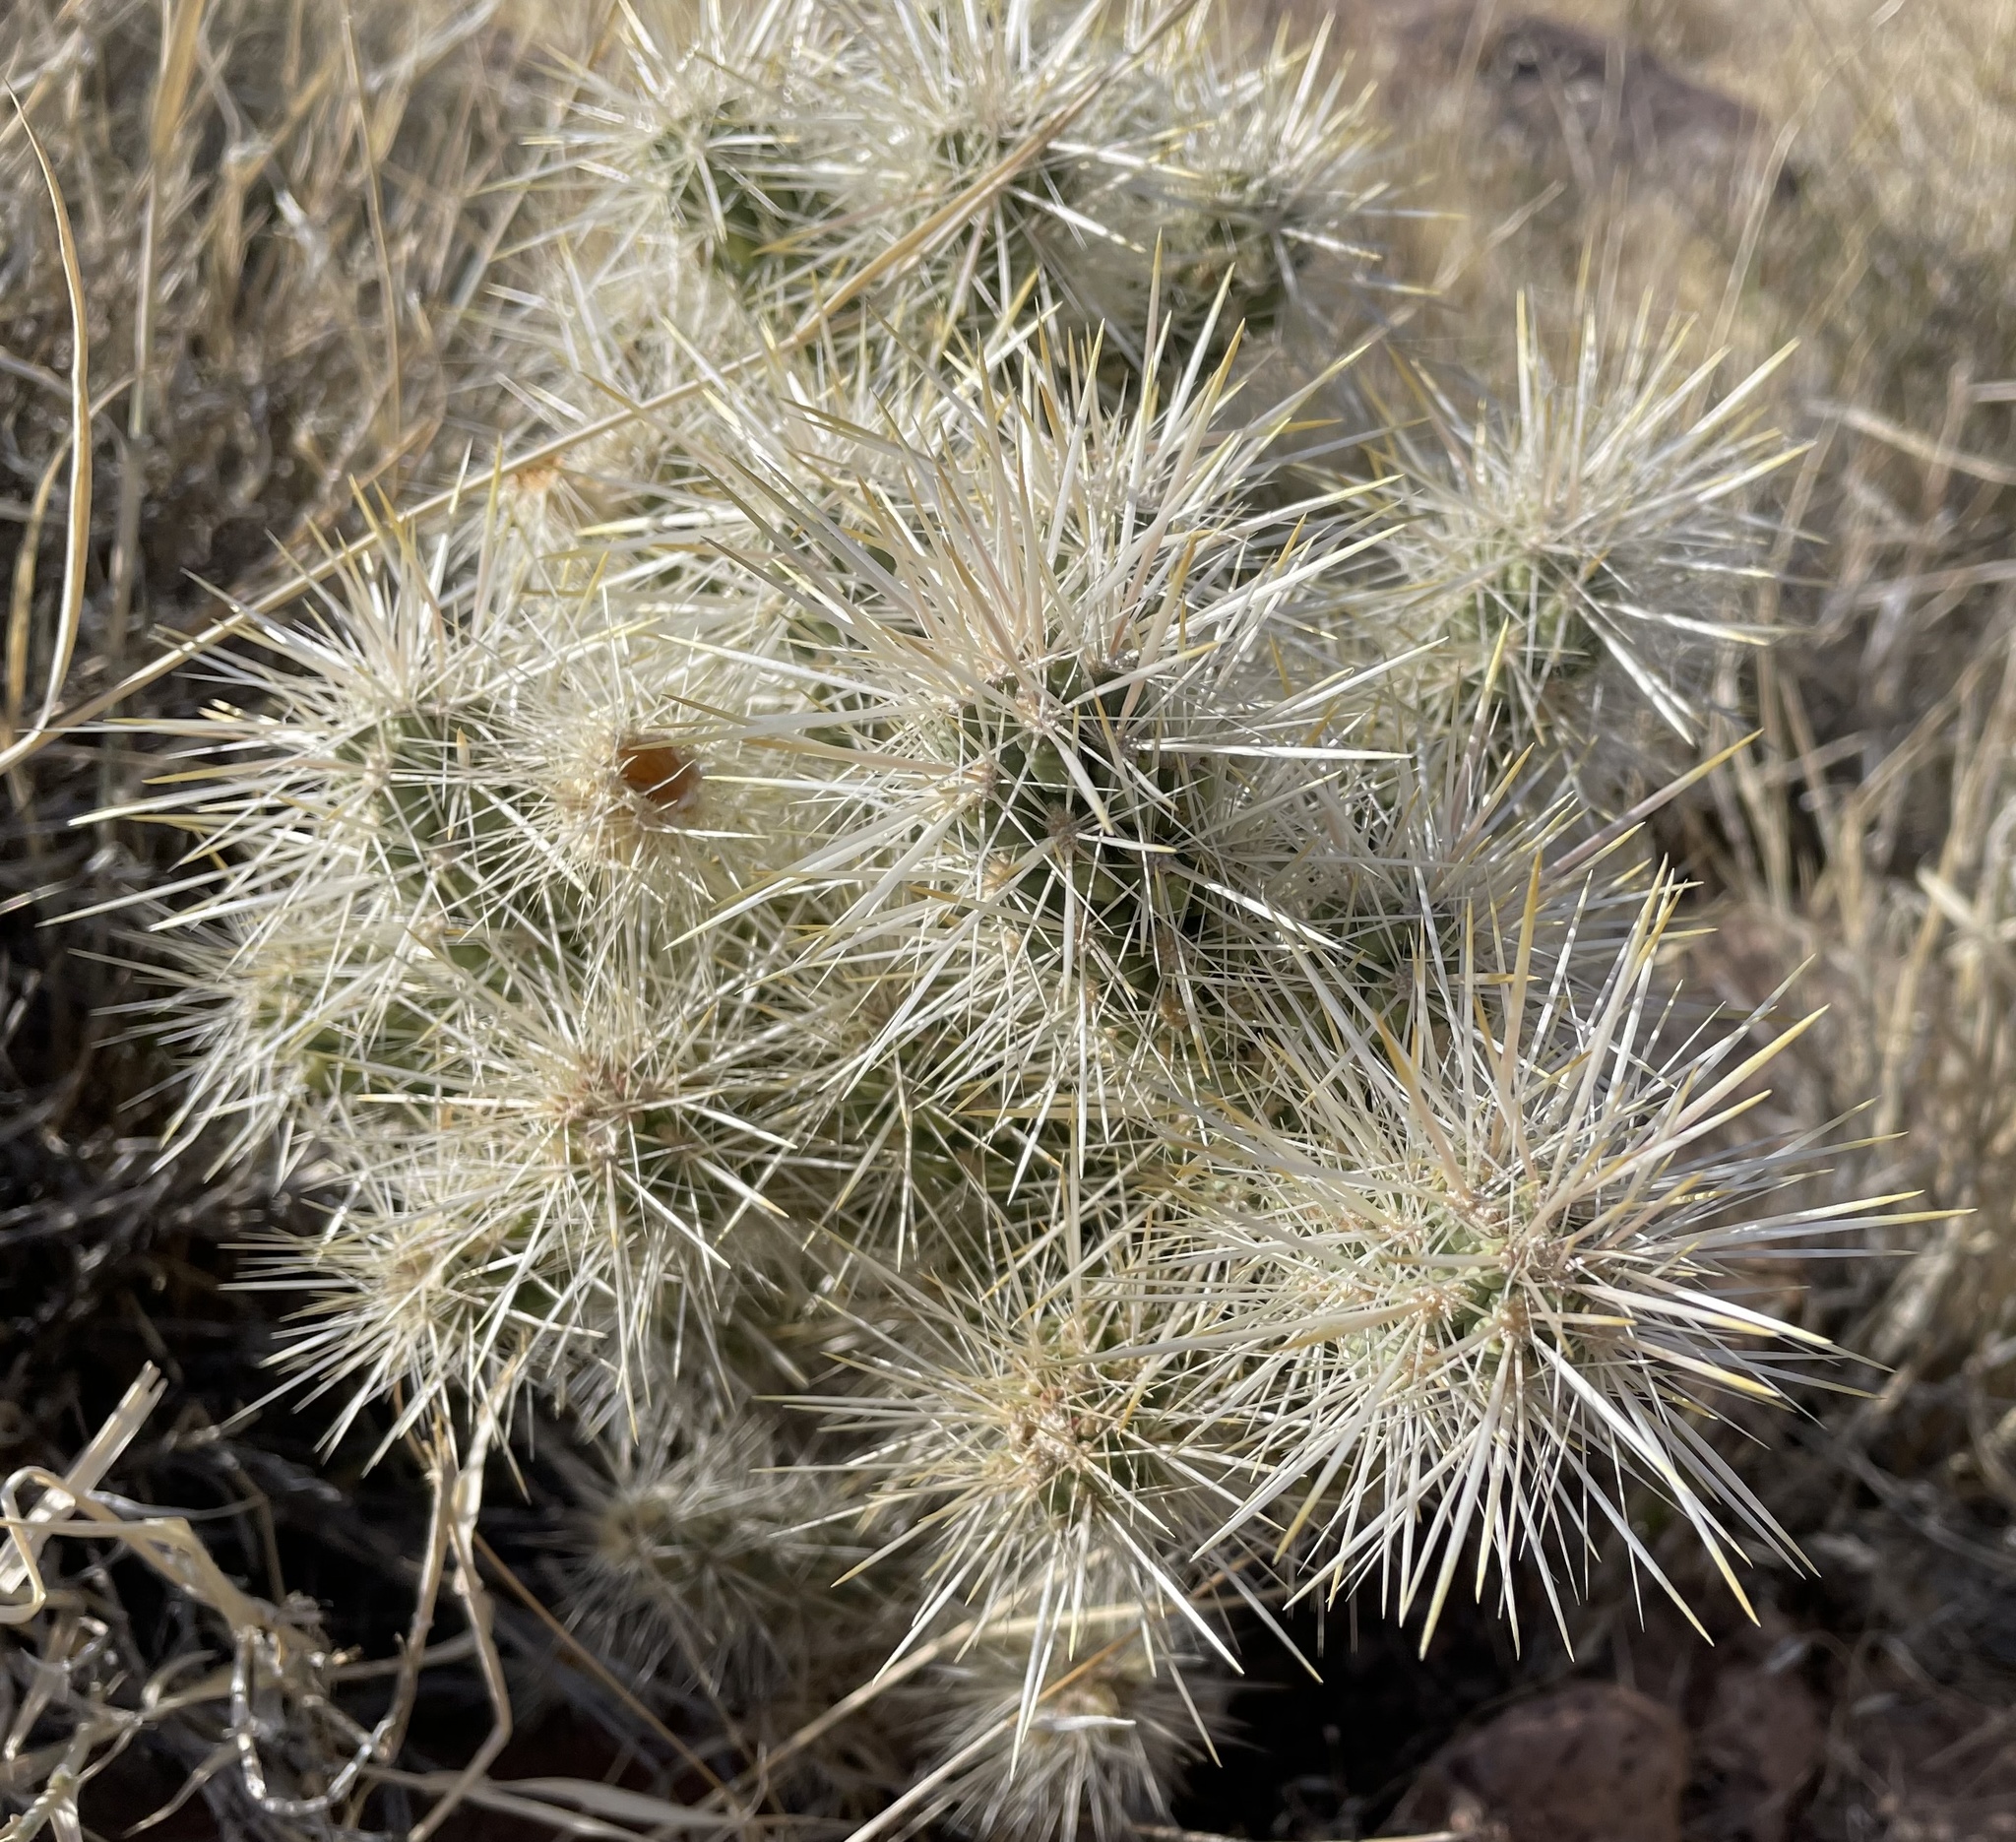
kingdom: Plantae
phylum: Tracheophyta
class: Magnoliopsida
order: Caryophyllales
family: Cactaceae
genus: Cylindropuntia
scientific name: Cylindropuntia echinocarpa
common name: Ground cholla
